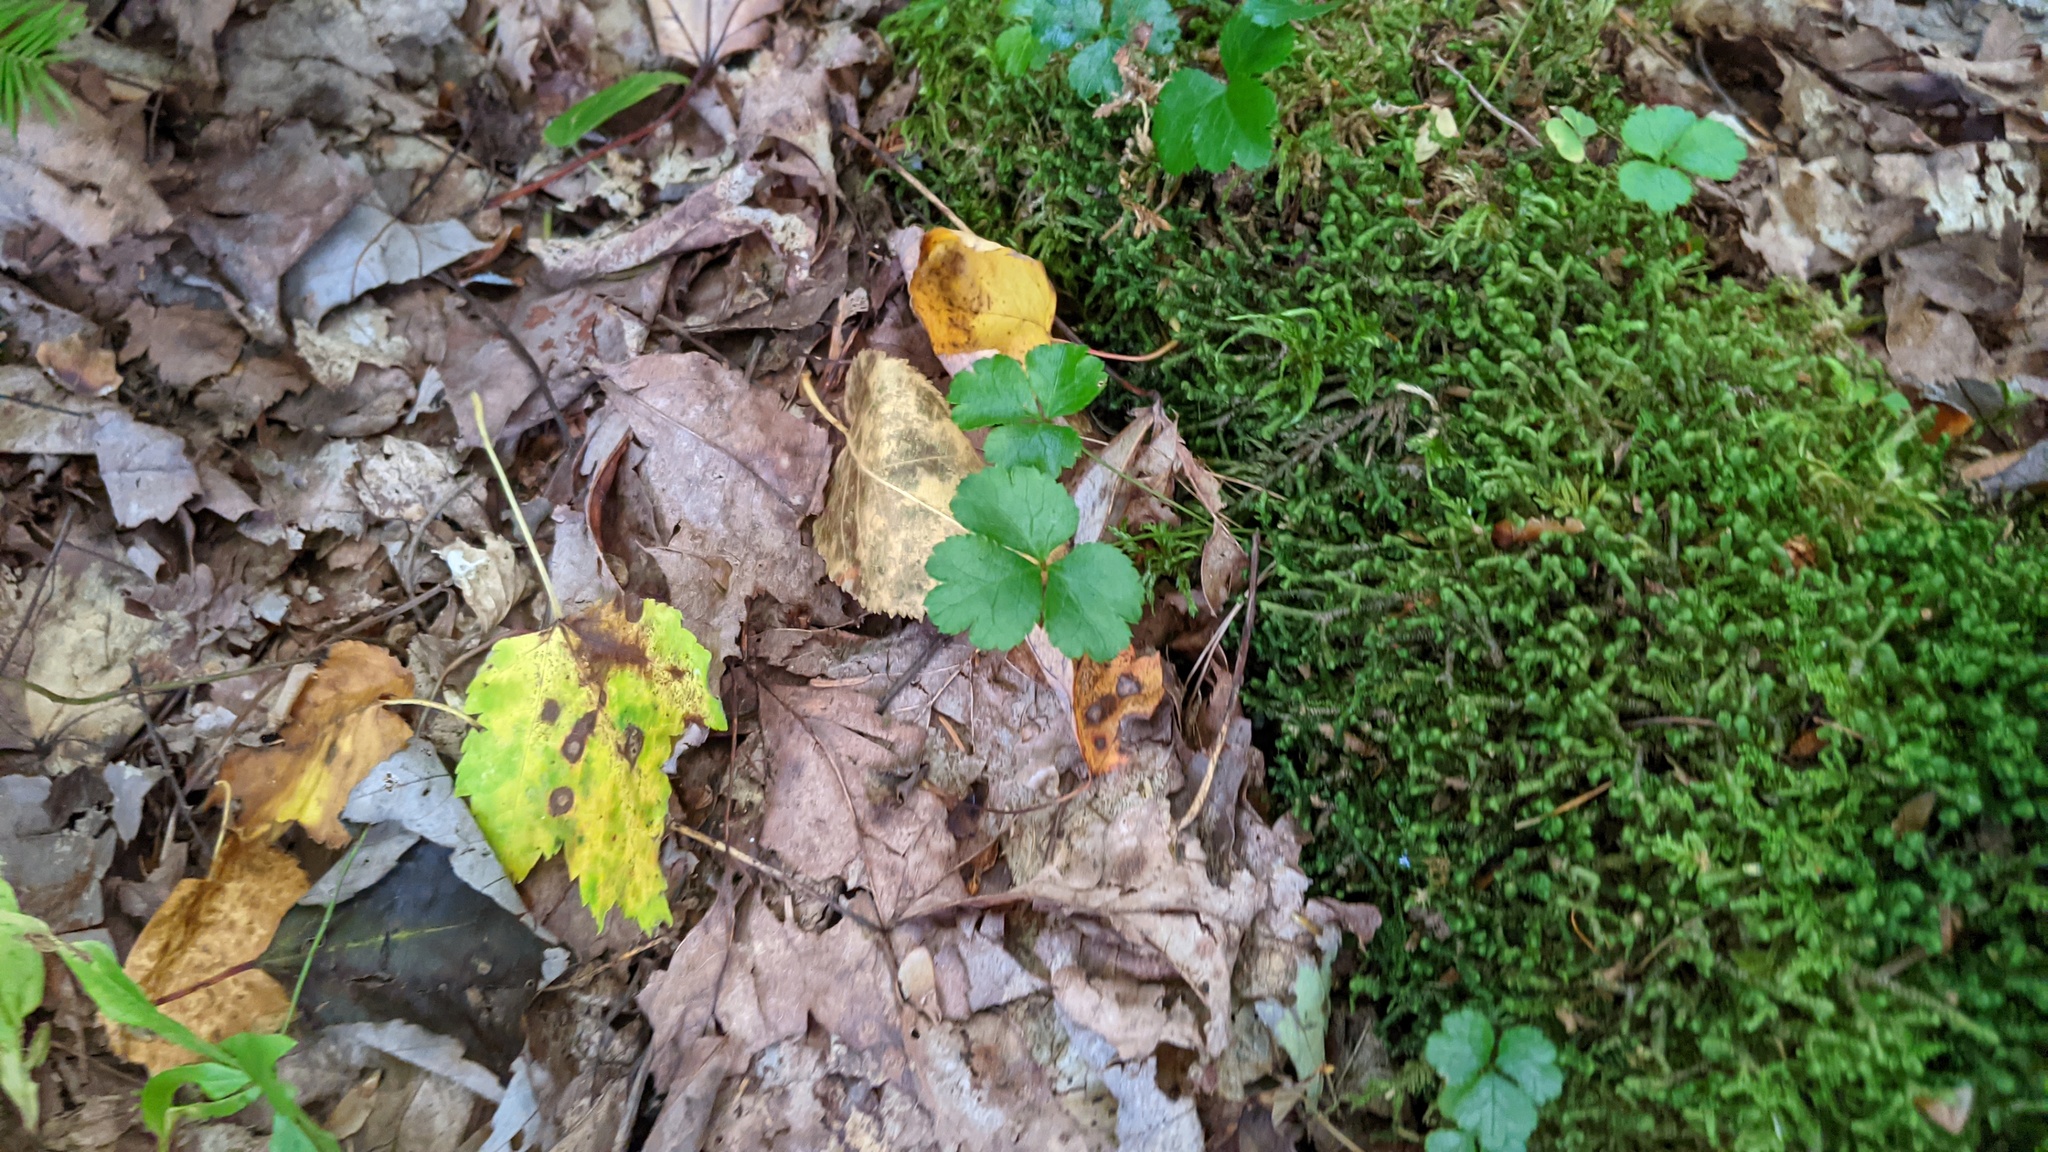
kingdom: Plantae
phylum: Tracheophyta
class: Magnoliopsida
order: Ranunculales
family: Ranunculaceae
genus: Coptis
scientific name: Coptis trifolia
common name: Canker-root
